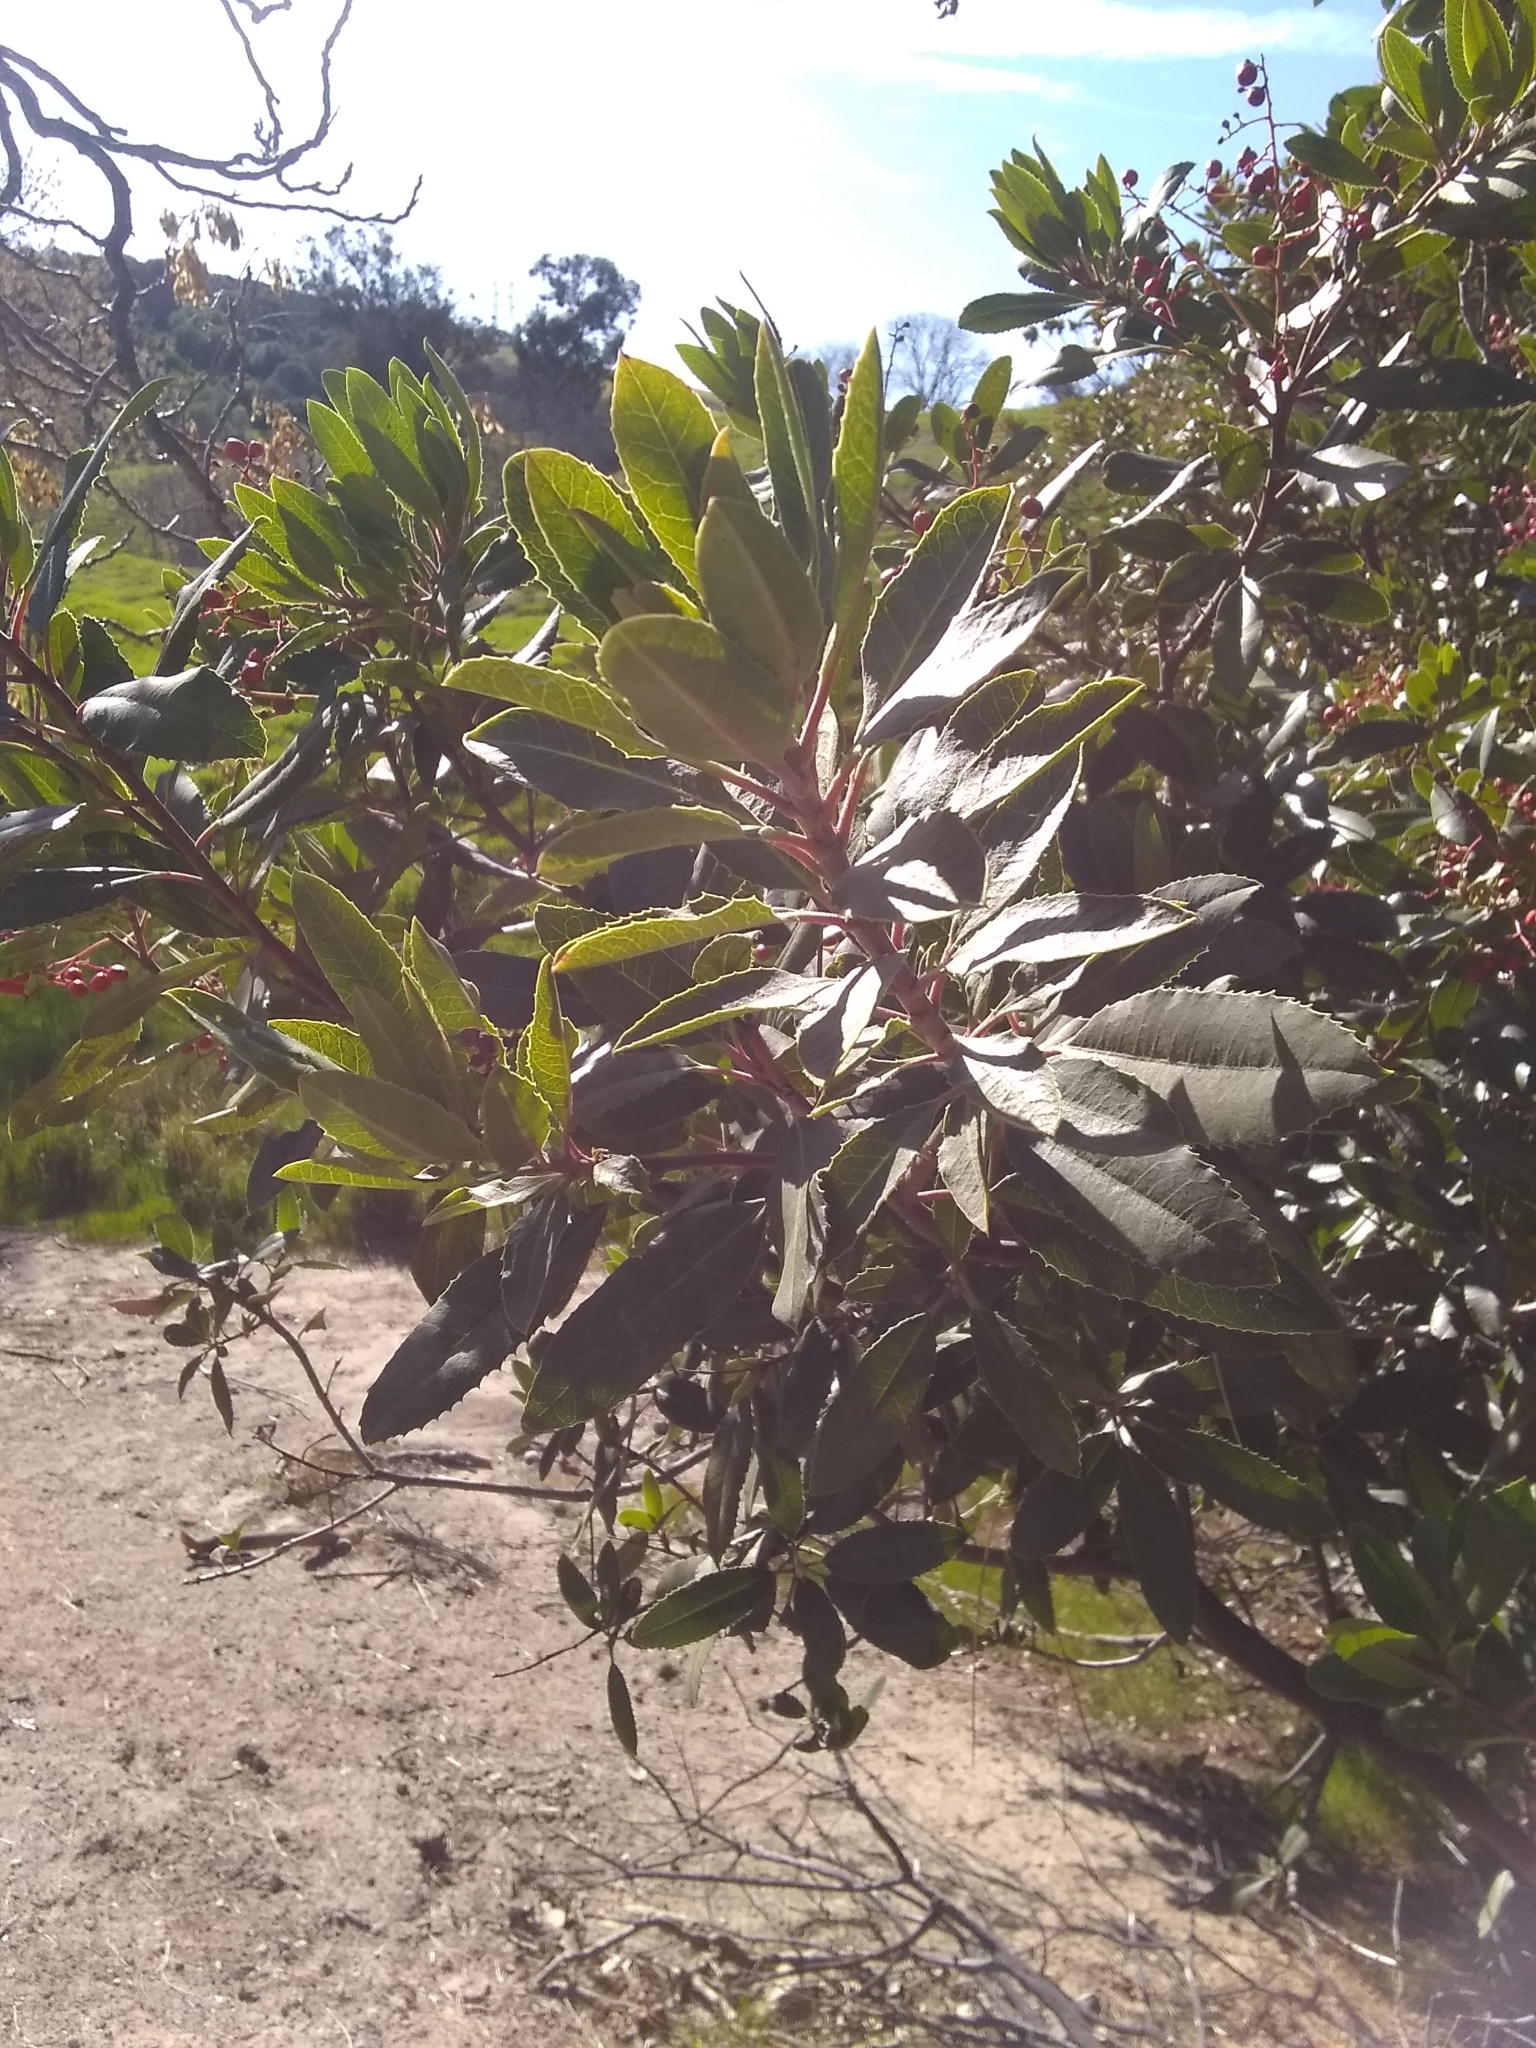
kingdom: Plantae
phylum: Tracheophyta
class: Magnoliopsida
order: Rosales
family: Rosaceae
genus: Heteromeles
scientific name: Heteromeles arbutifolia
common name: California-holly
